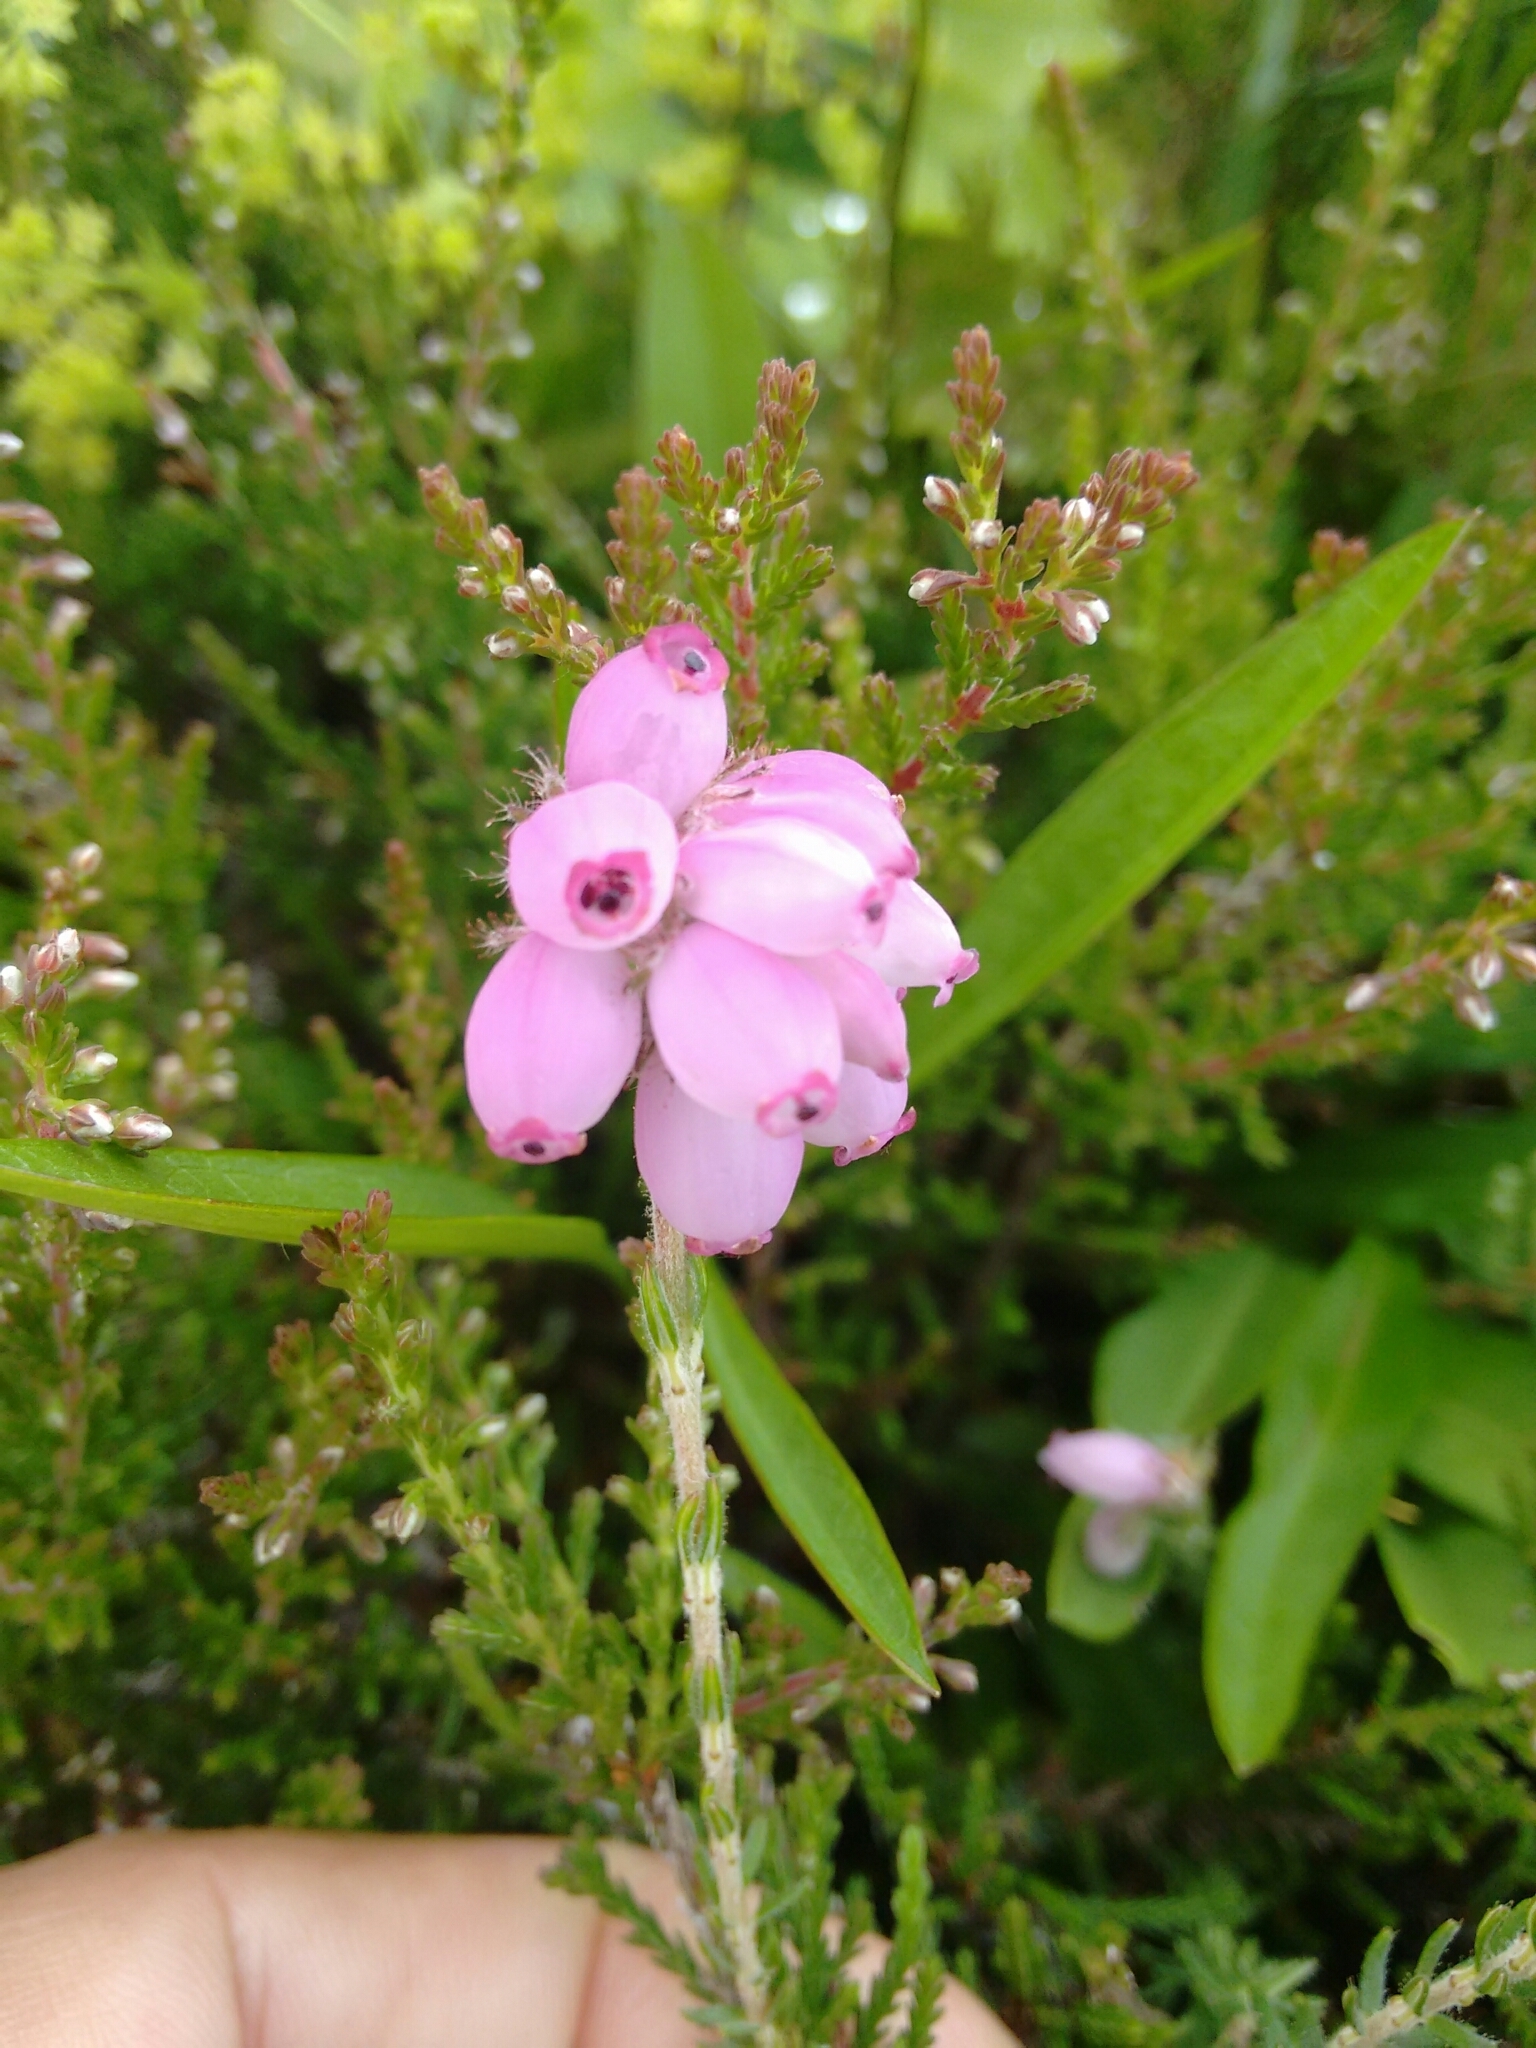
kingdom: Plantae
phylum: Tracheophyta
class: Magnoliopsida
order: Ericales
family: Ericaceae
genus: Erica
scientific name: Erica tetralix
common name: Cross-leaved heath
